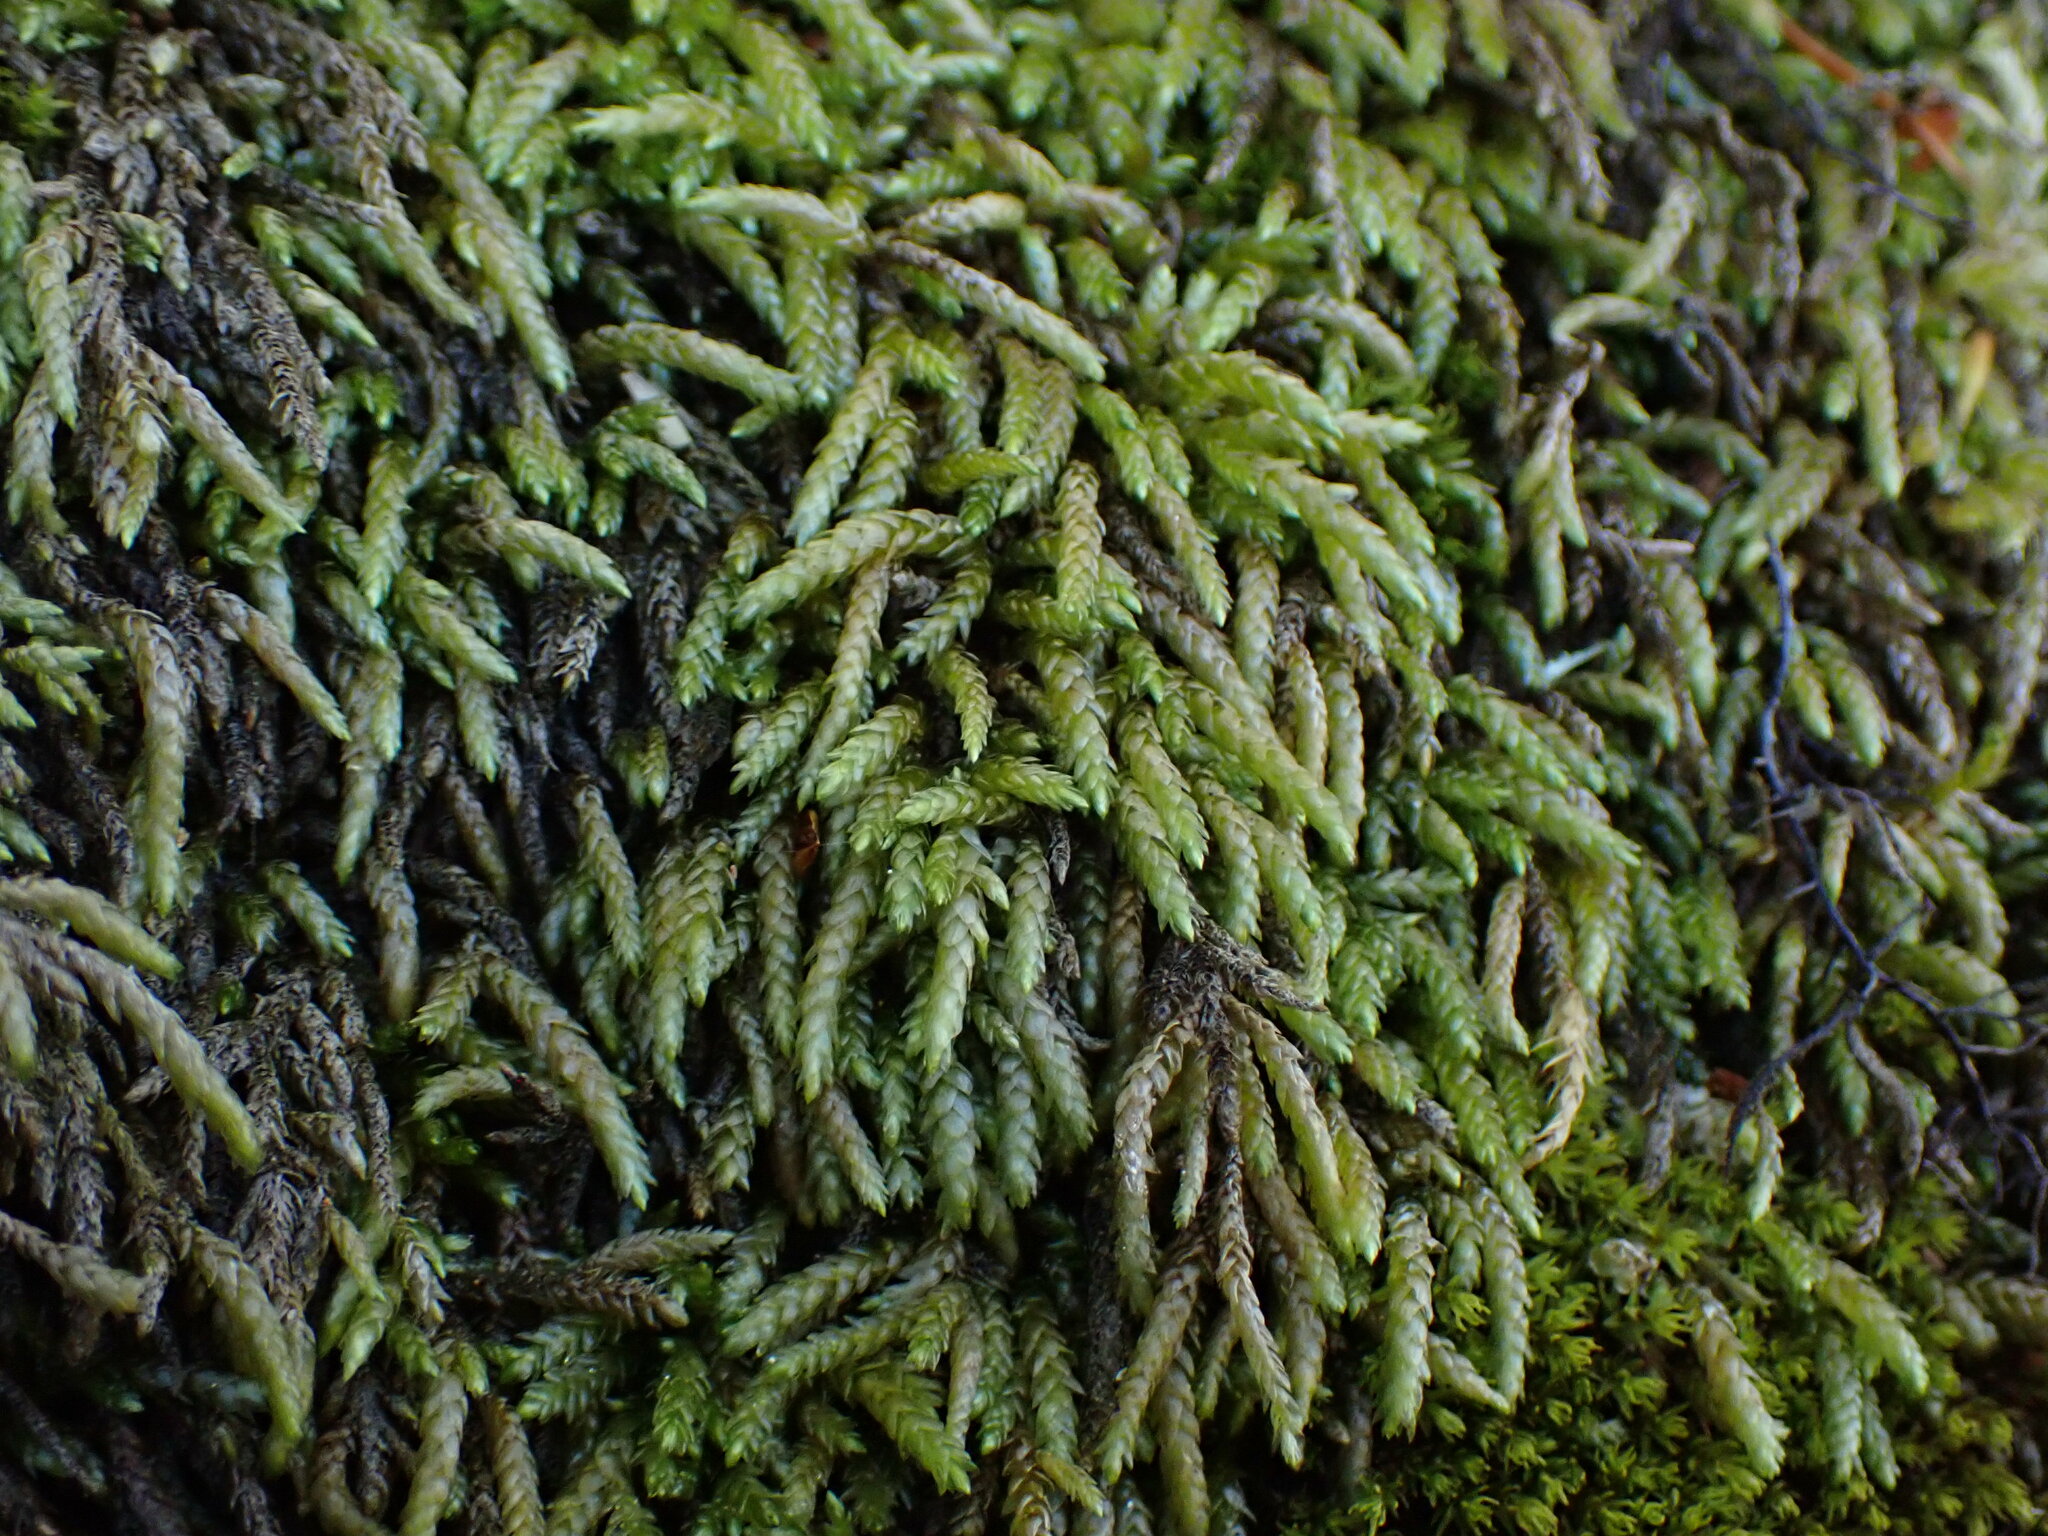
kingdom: Plantae
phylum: Bryophyta
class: Bryopsida
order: Hypnales
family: Brachytheciaceae
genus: Scleropodium
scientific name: Scleropodium obtusifolium
